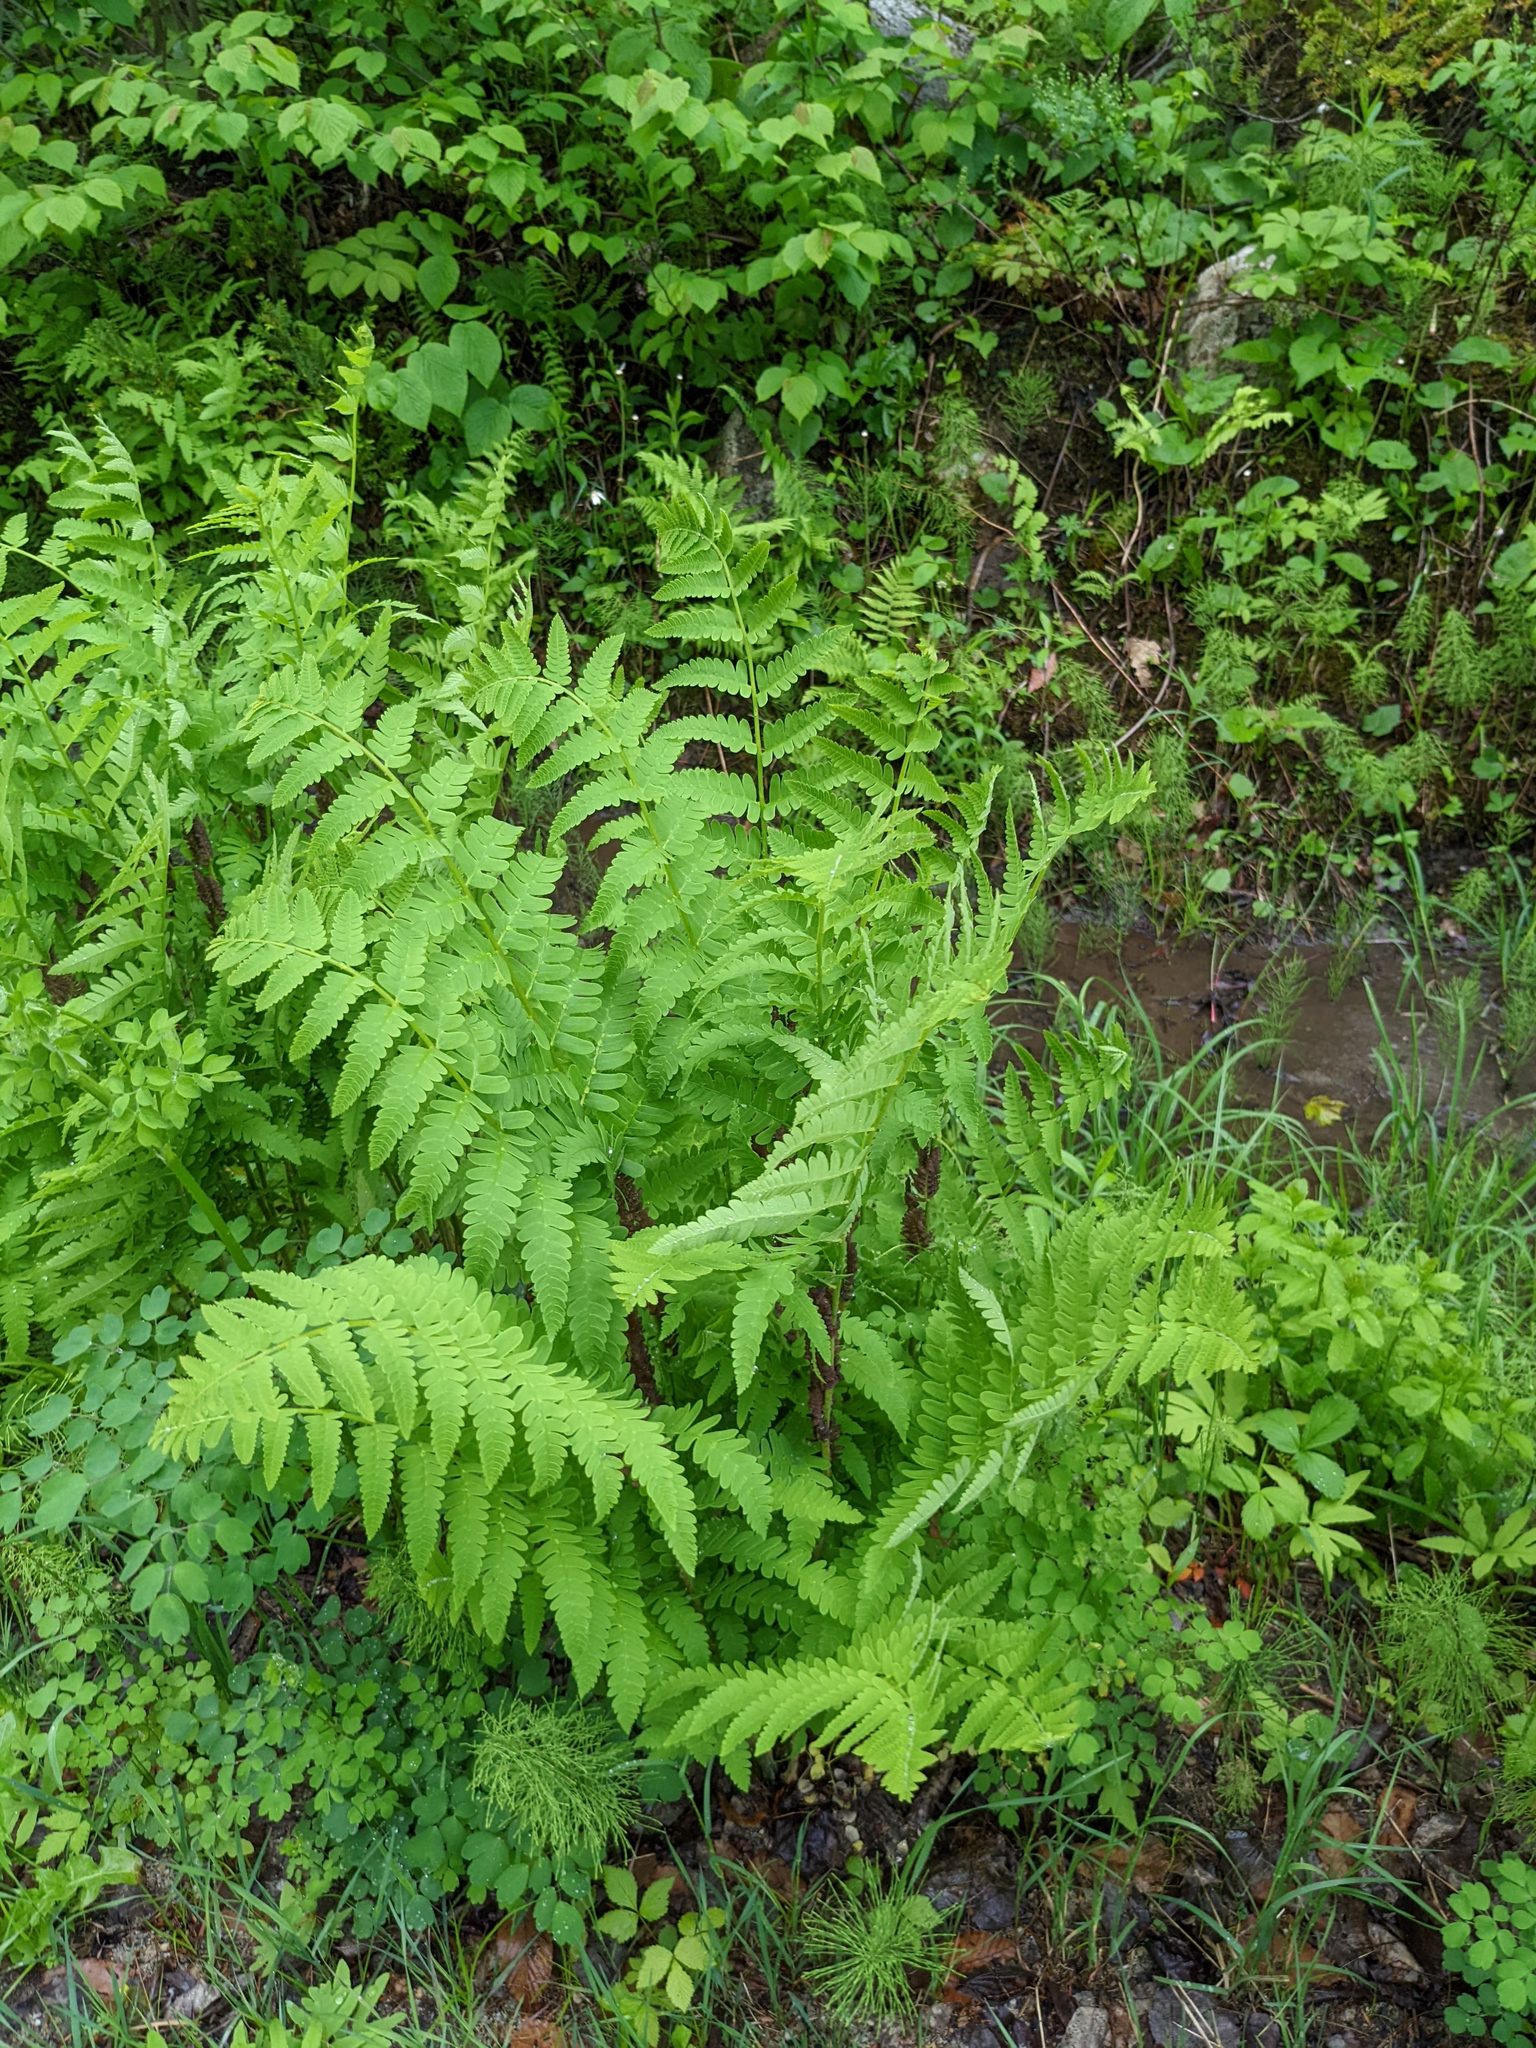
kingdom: Plantae
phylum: Tracheophyta
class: Polypodiopsida
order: Osmundales
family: Osmundaceae
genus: Claytosmunda
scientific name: Claytosmunda claytoniana
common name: Clayton's fern
